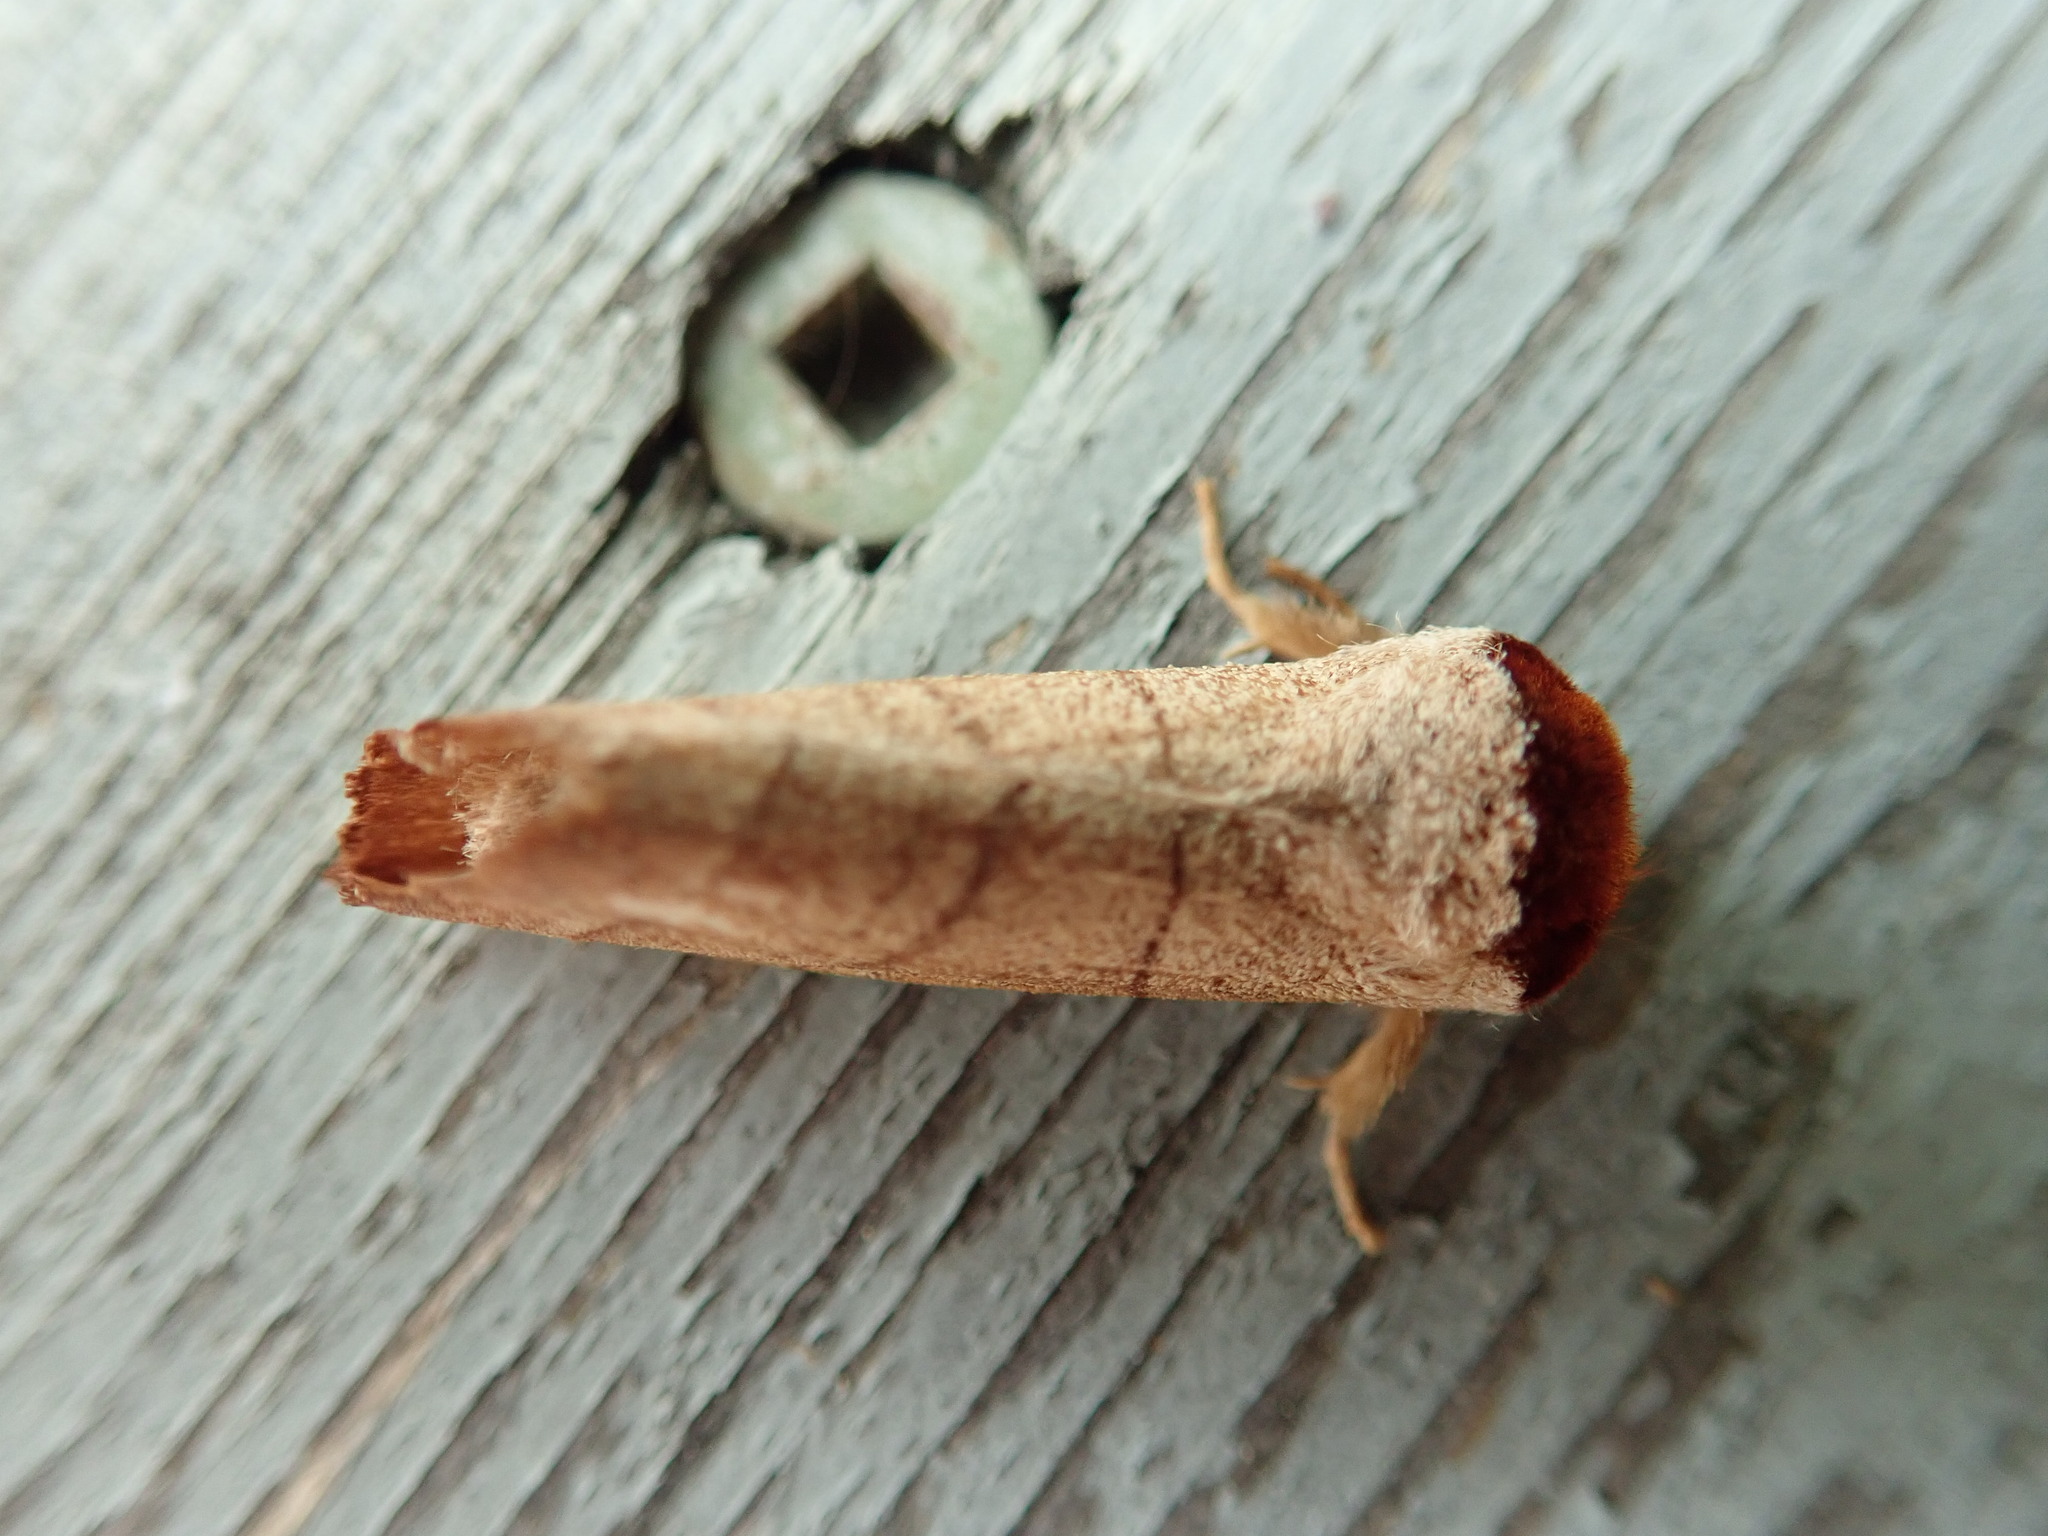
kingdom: Animalia
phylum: Arthropoda
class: Insecta
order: Lepidoptera
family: Notodontidae
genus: Datana
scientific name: Datana ministra
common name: Yellow-necked caterpillar moth
